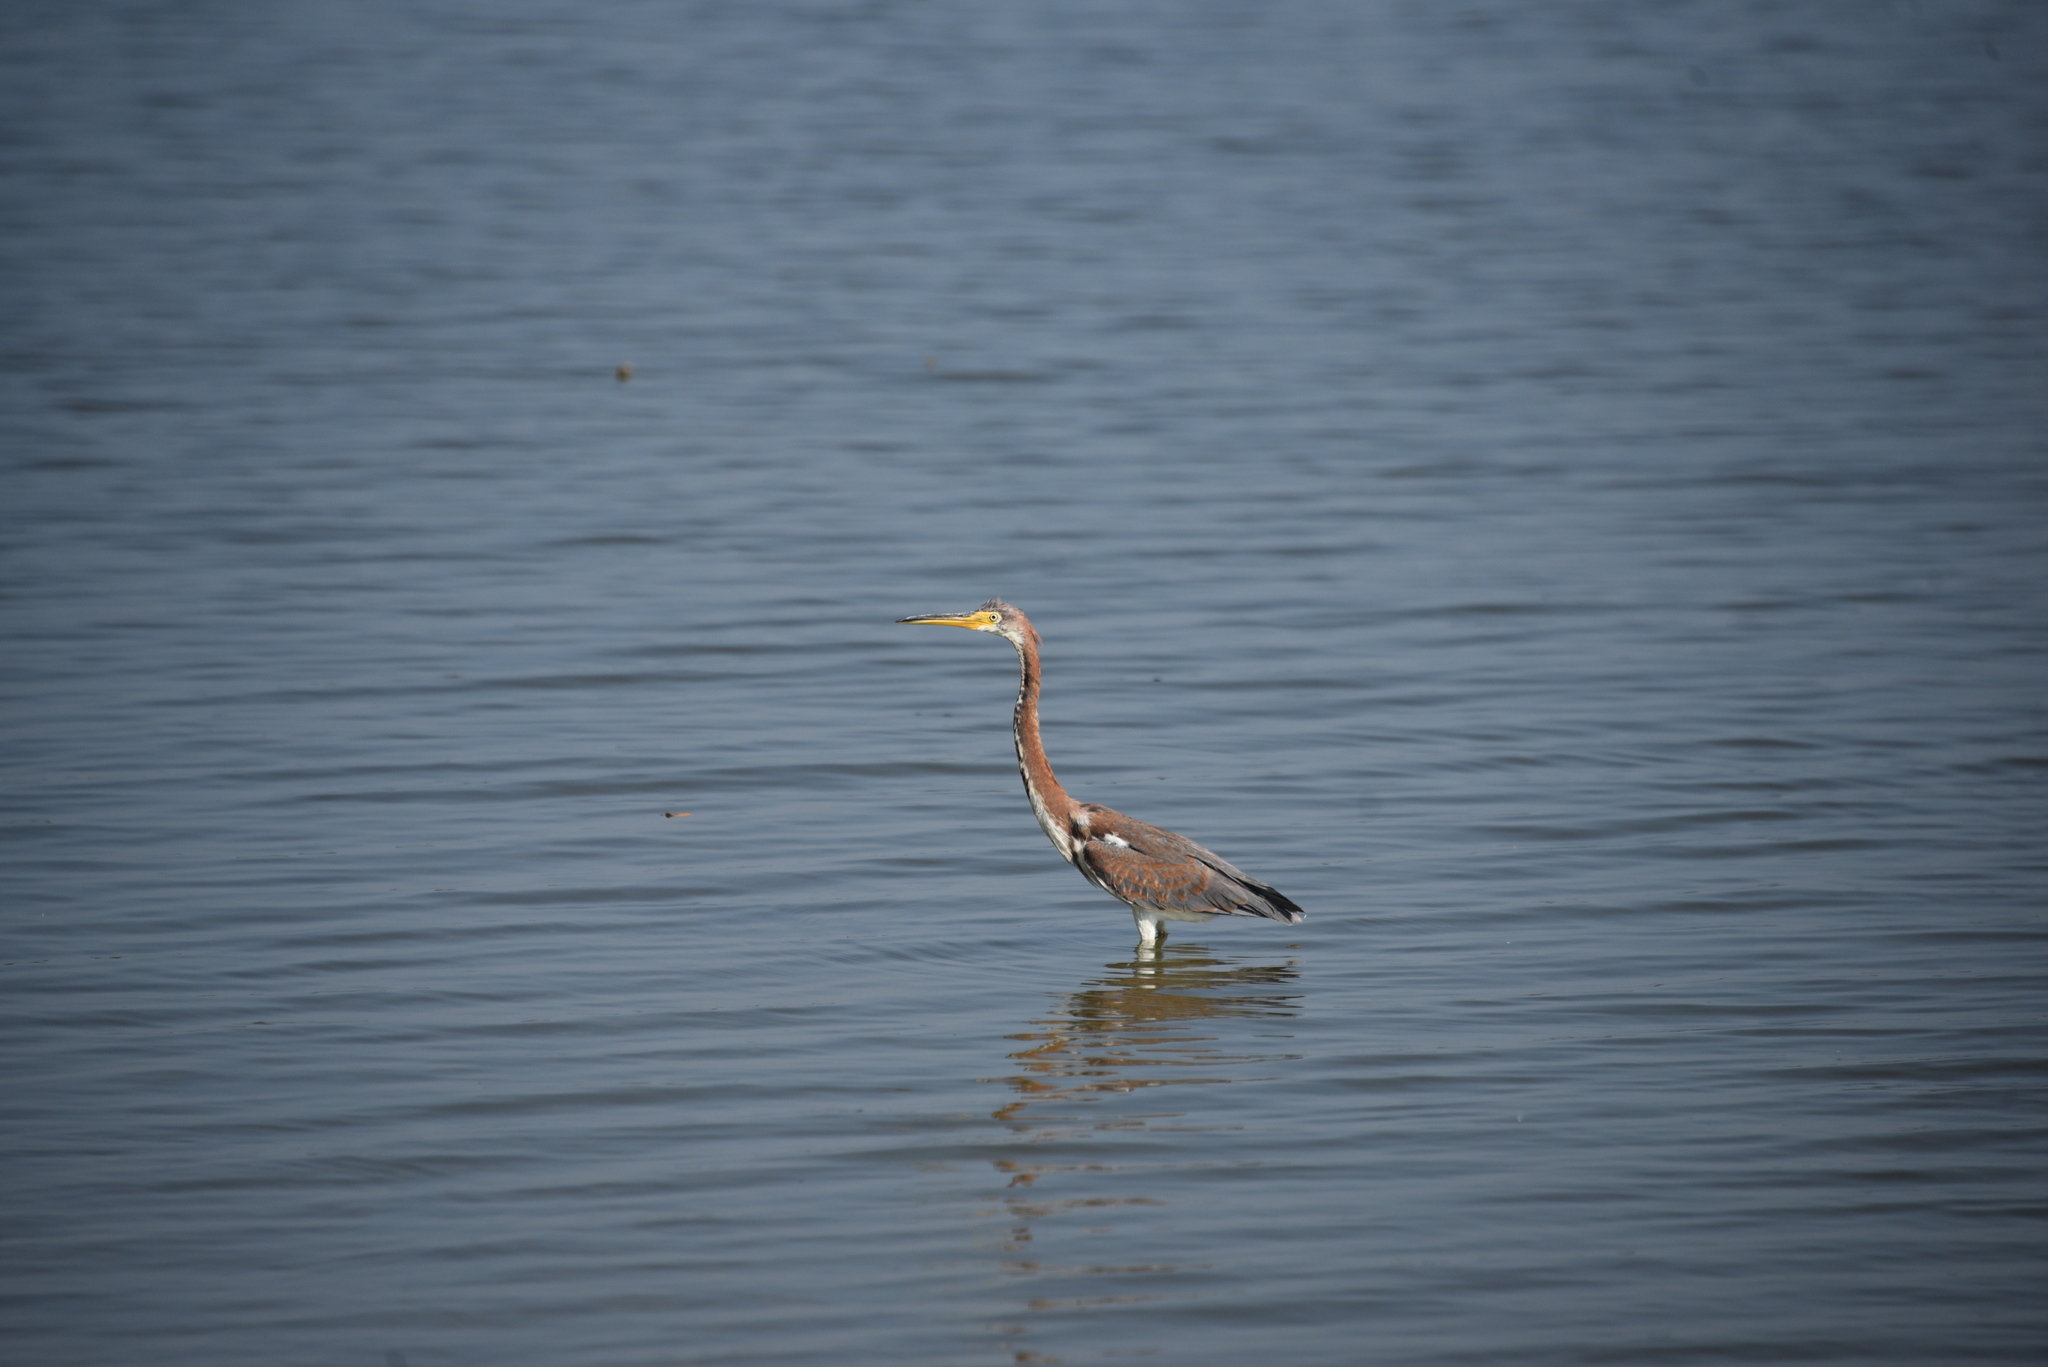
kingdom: Animalia
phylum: Chordata
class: Aves
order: Pelecaniformes
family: Ardeidae
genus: Egretta
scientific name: Egretta tricolor
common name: Tricolored heron
